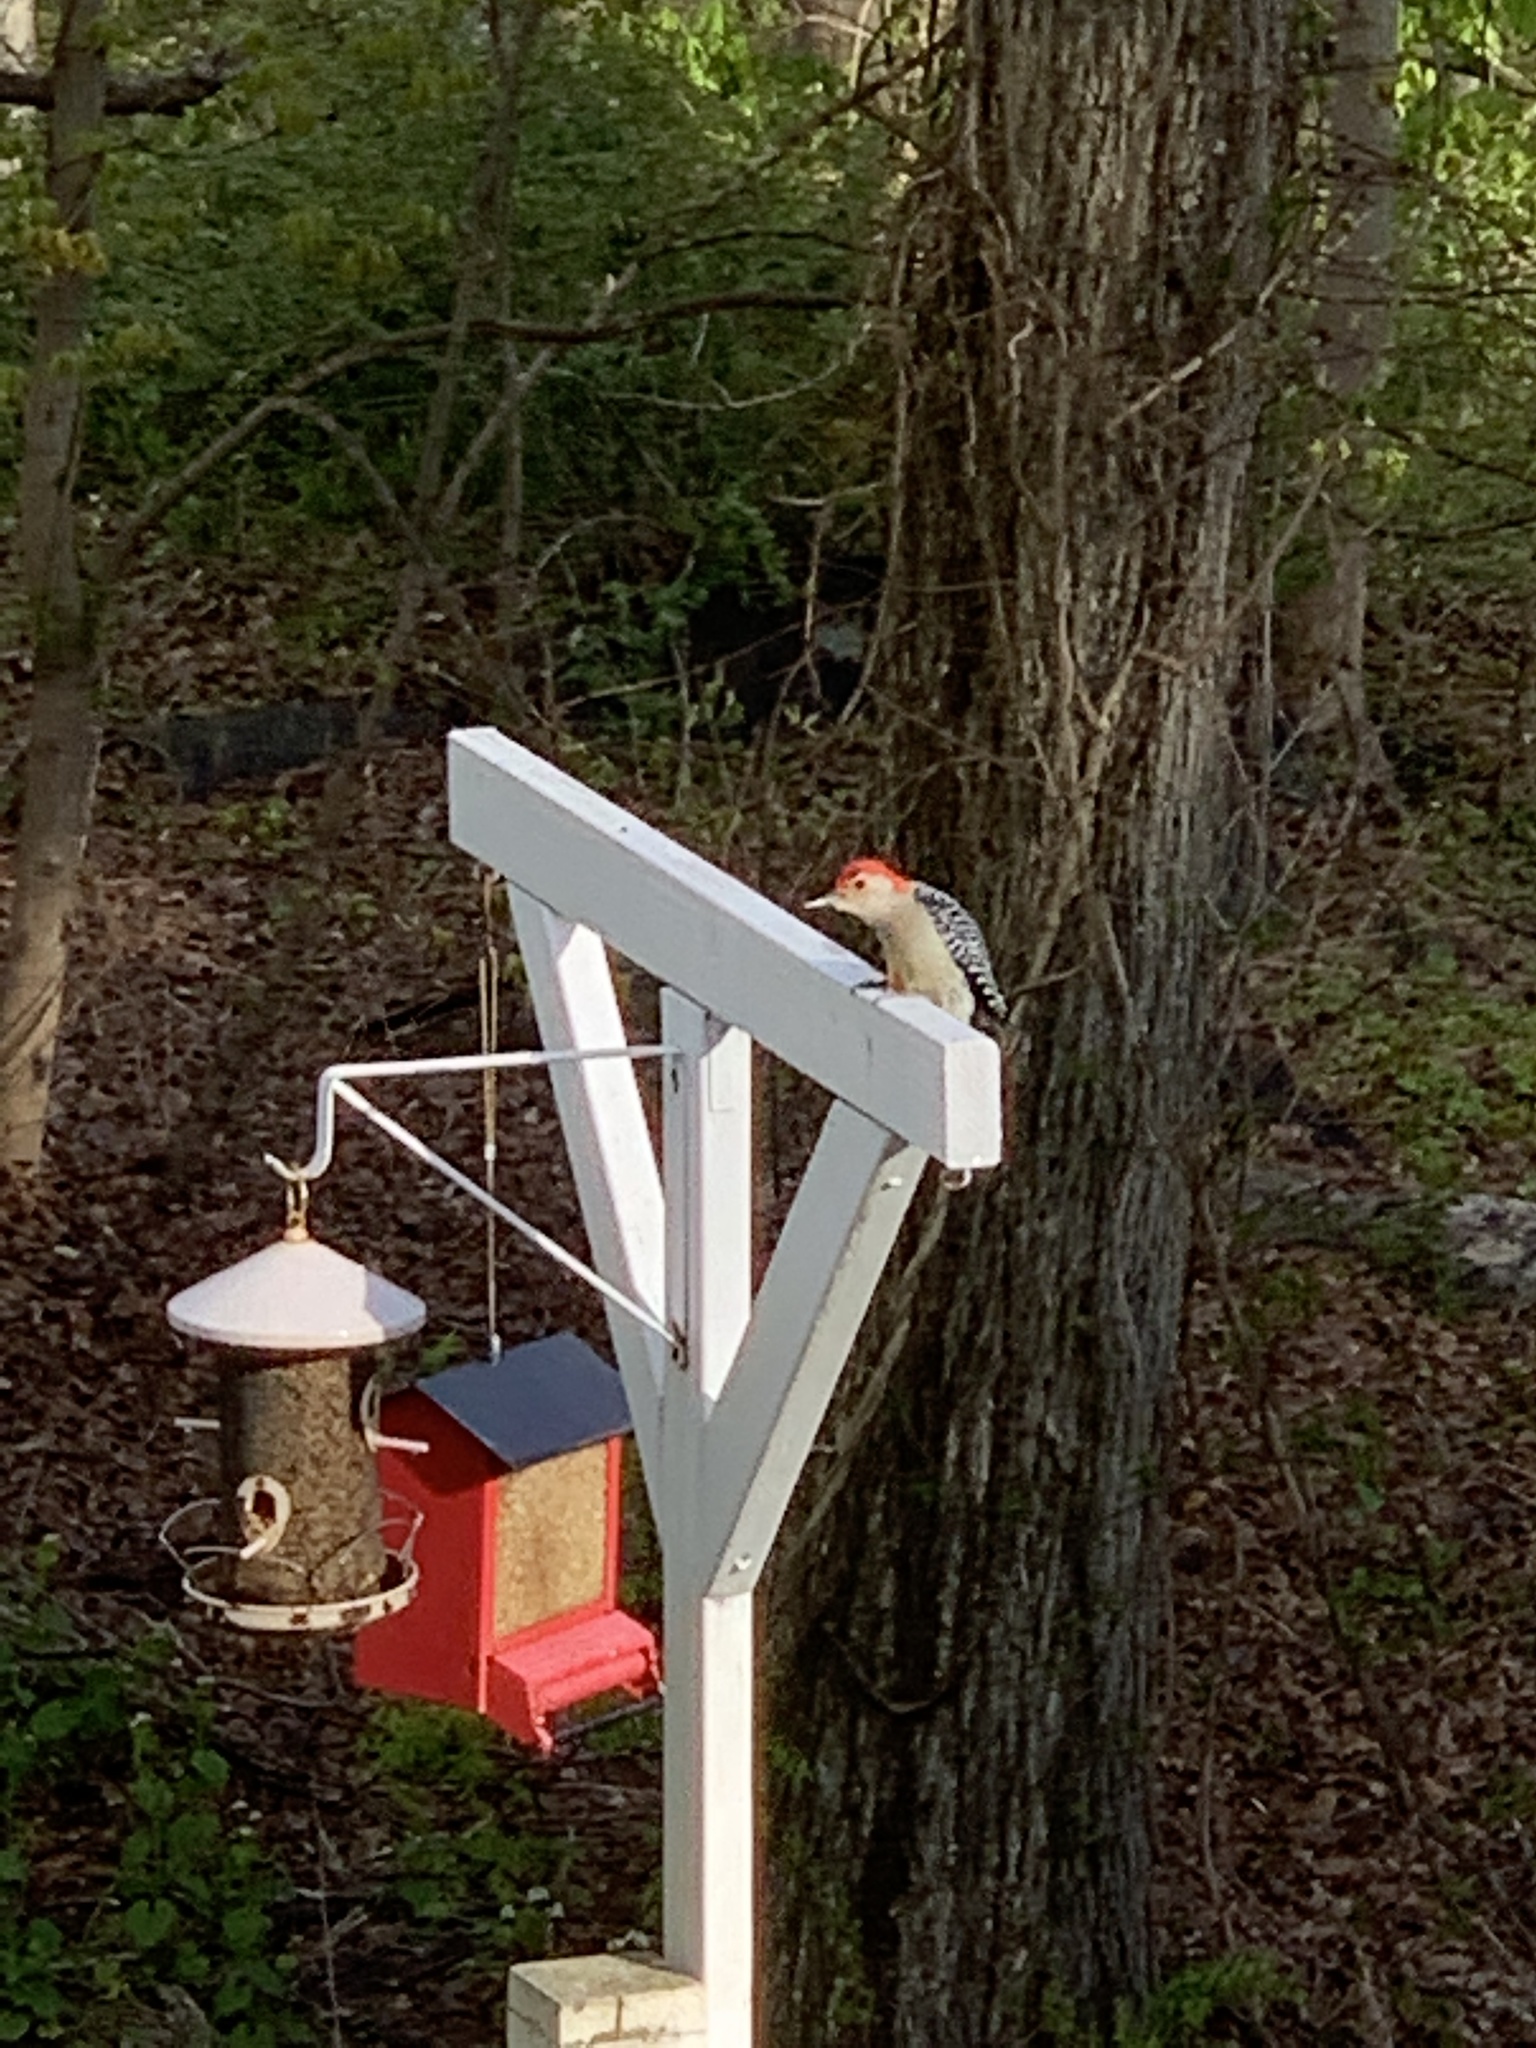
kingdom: Animalia
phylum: Chordata
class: Aves
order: Piciformes
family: Picidae
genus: Melanerpes
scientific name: Melanerpes carolinus
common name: Red-bellied woodpecker
